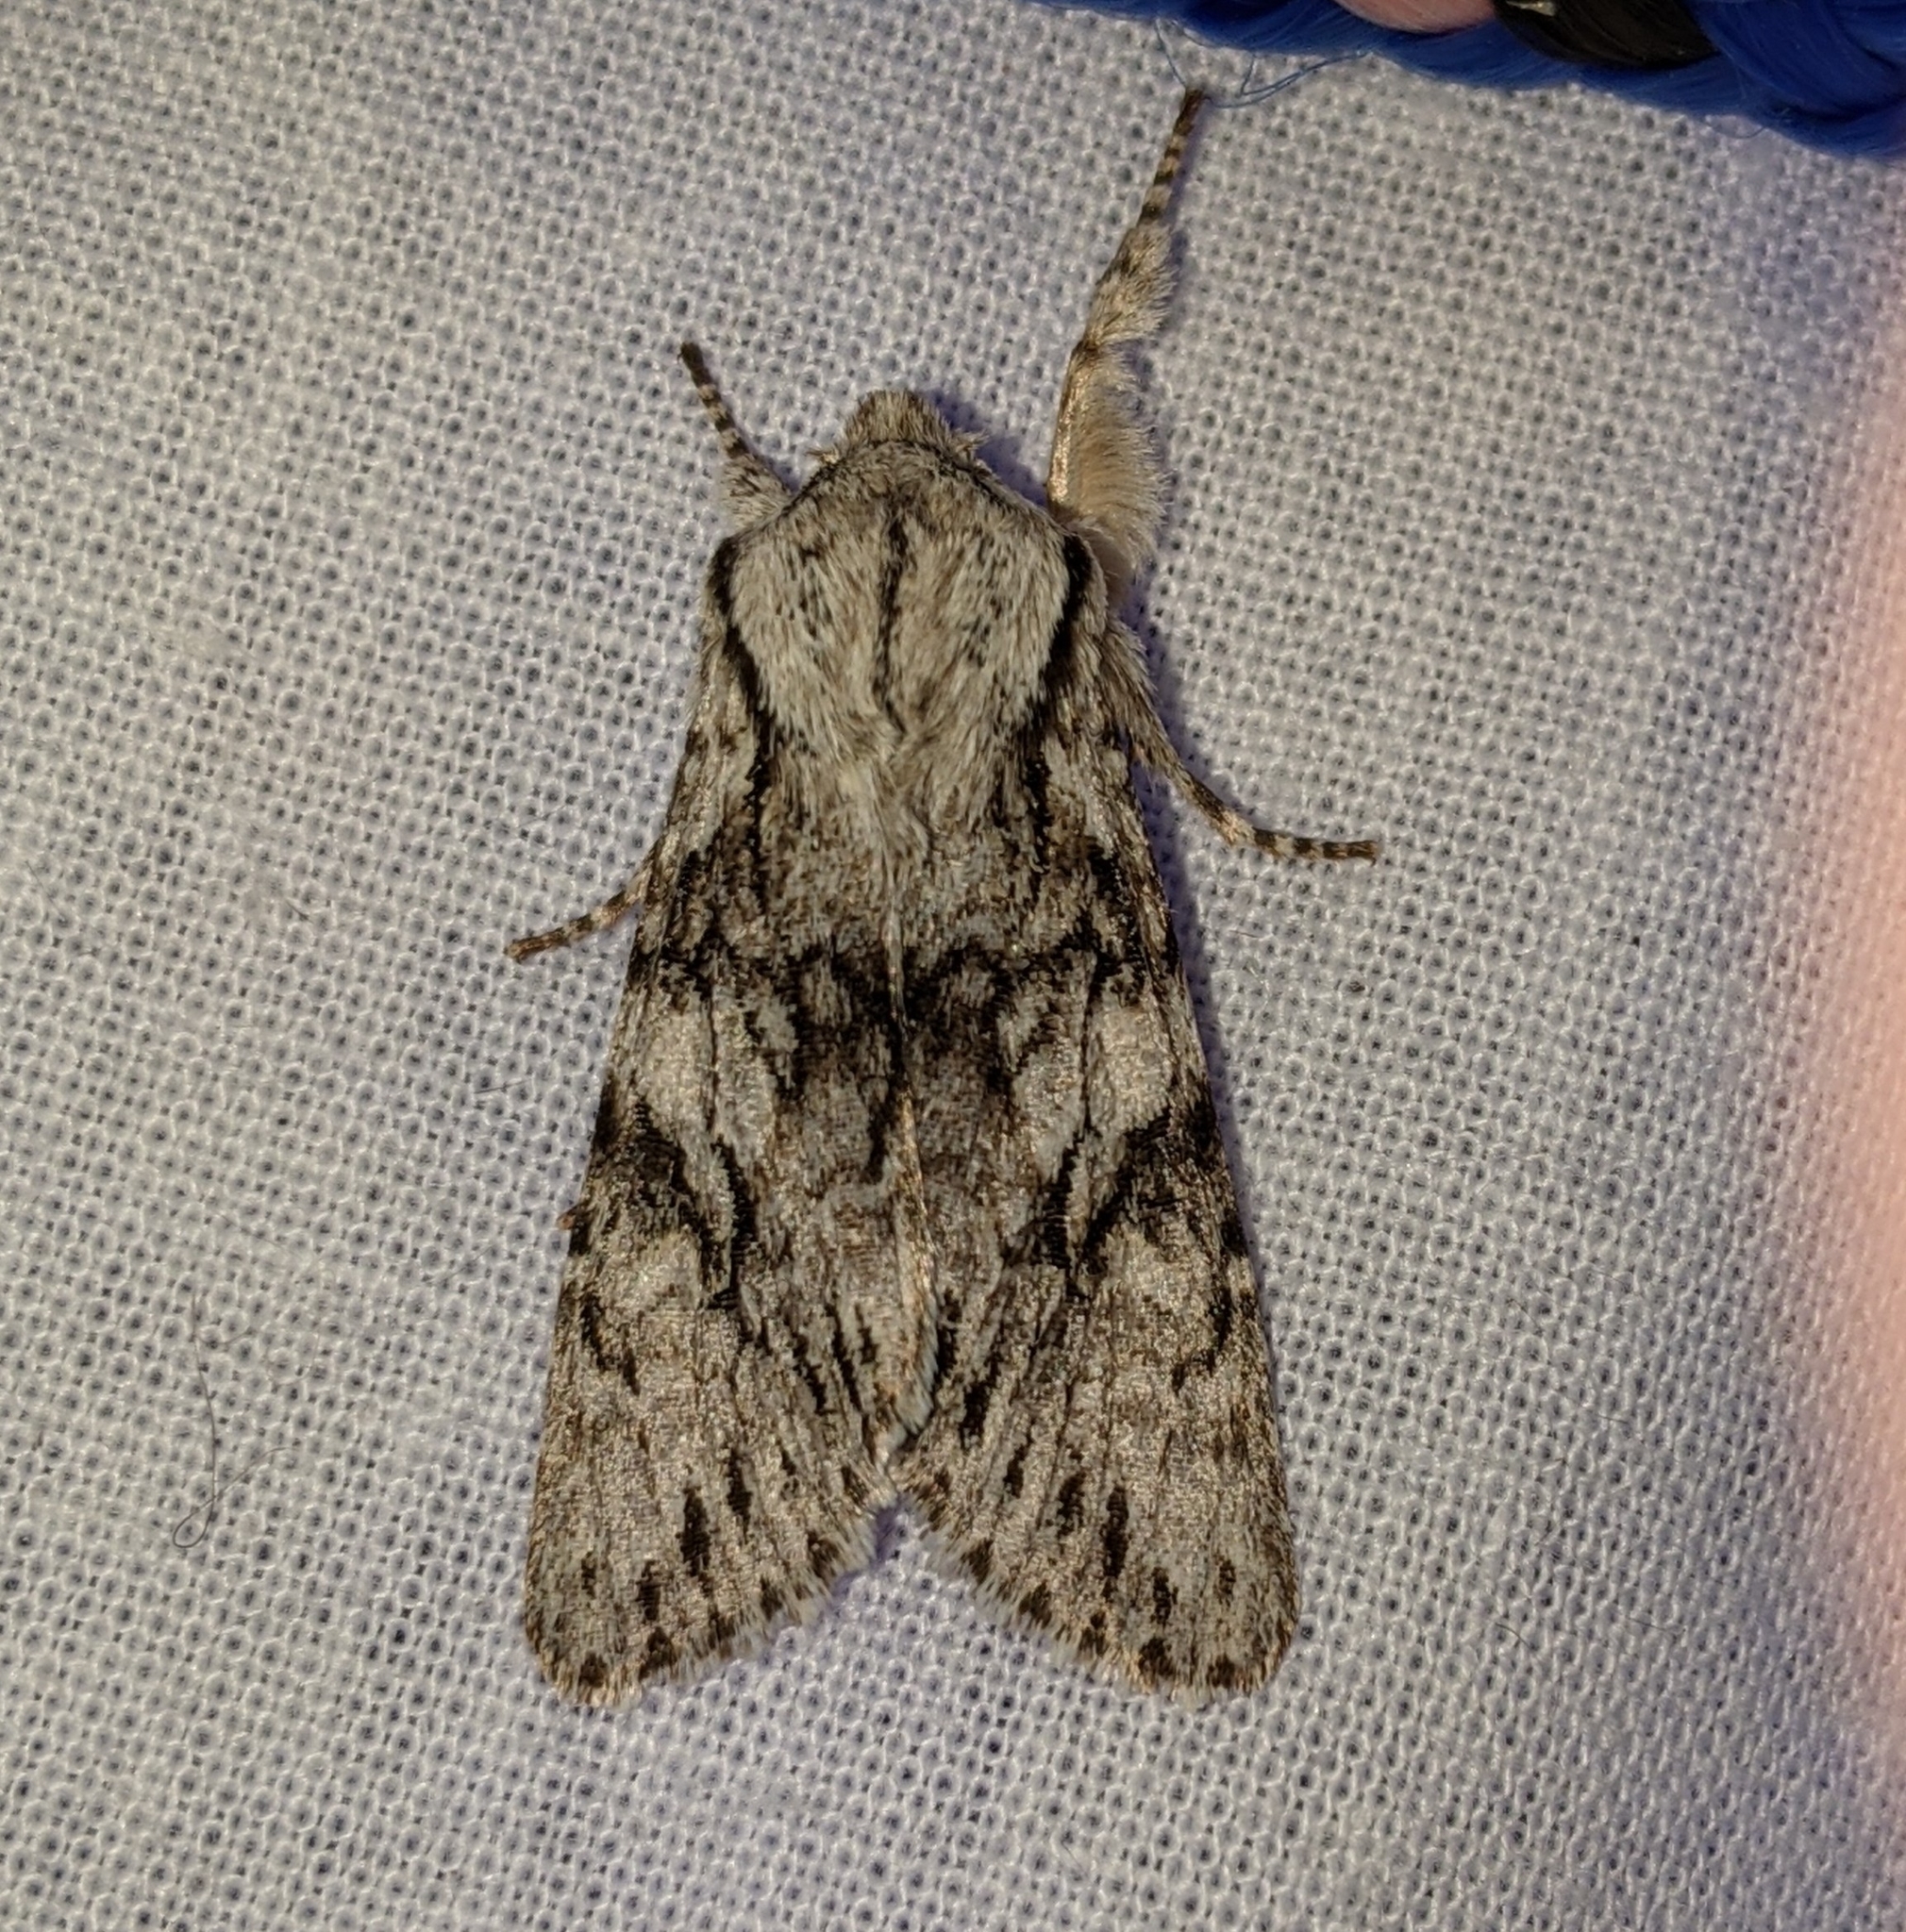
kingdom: Animalia
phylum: Arthropoda
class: Insecta
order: Lepidoptera
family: Noctuidae
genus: Egira
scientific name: Egira simplex
